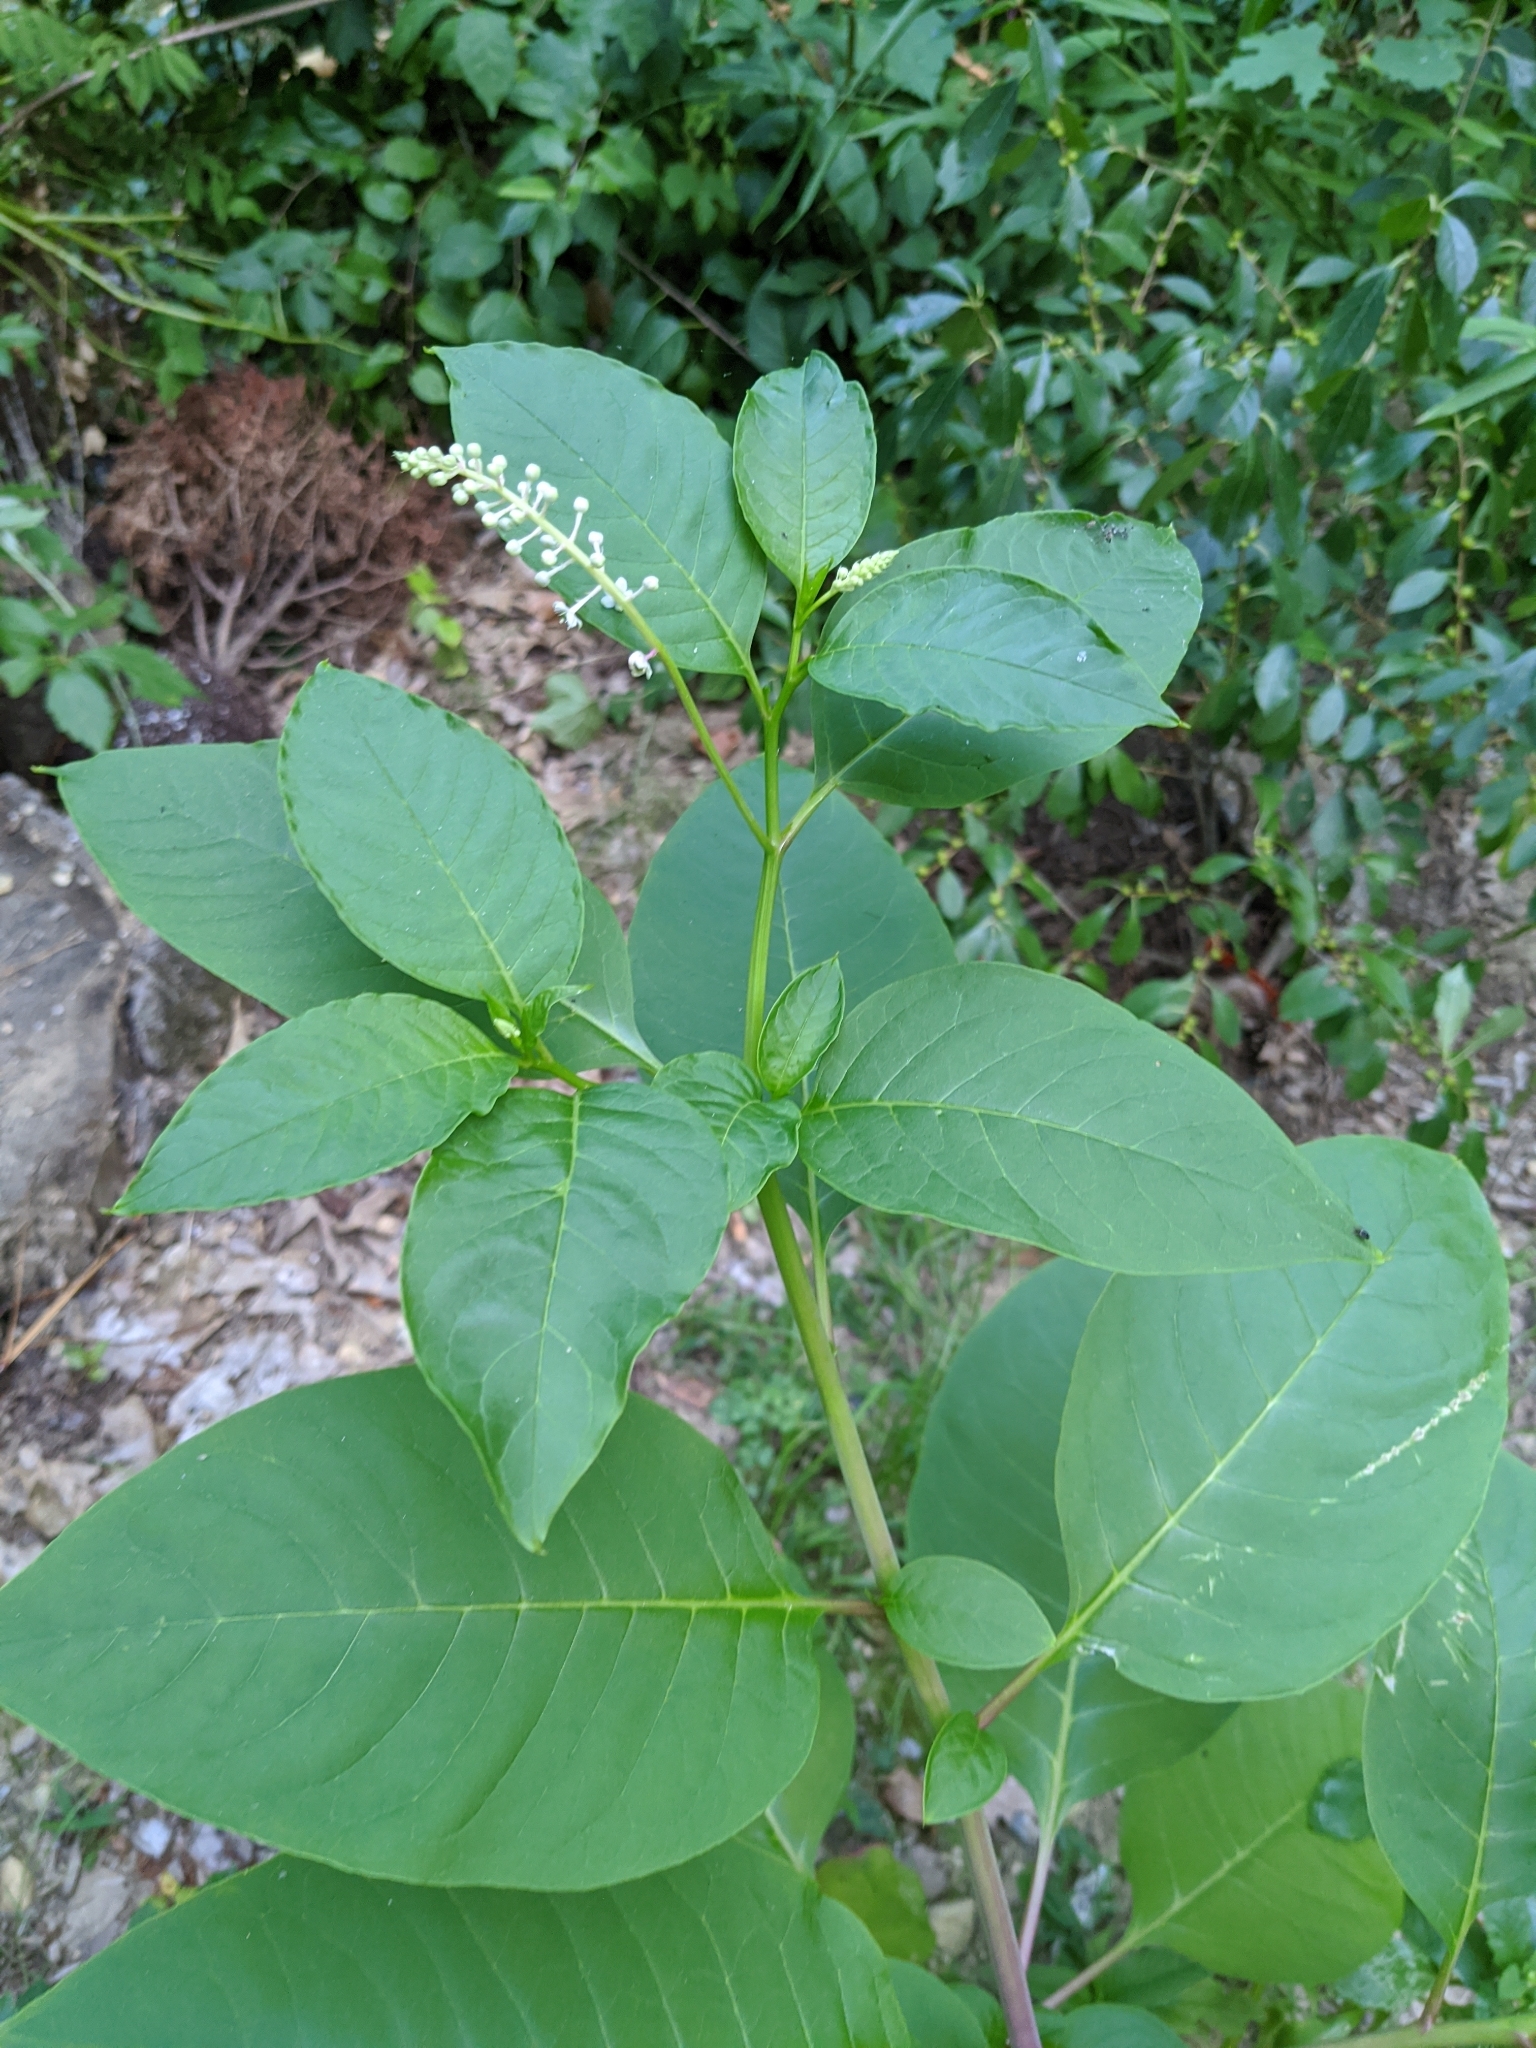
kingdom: Plantae
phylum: Tracheophyta
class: Magnoliopsida
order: Caryophyllales
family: Phytolaccaceae
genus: Phytolacca
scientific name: Phytolacca americana
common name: American pokeweed
